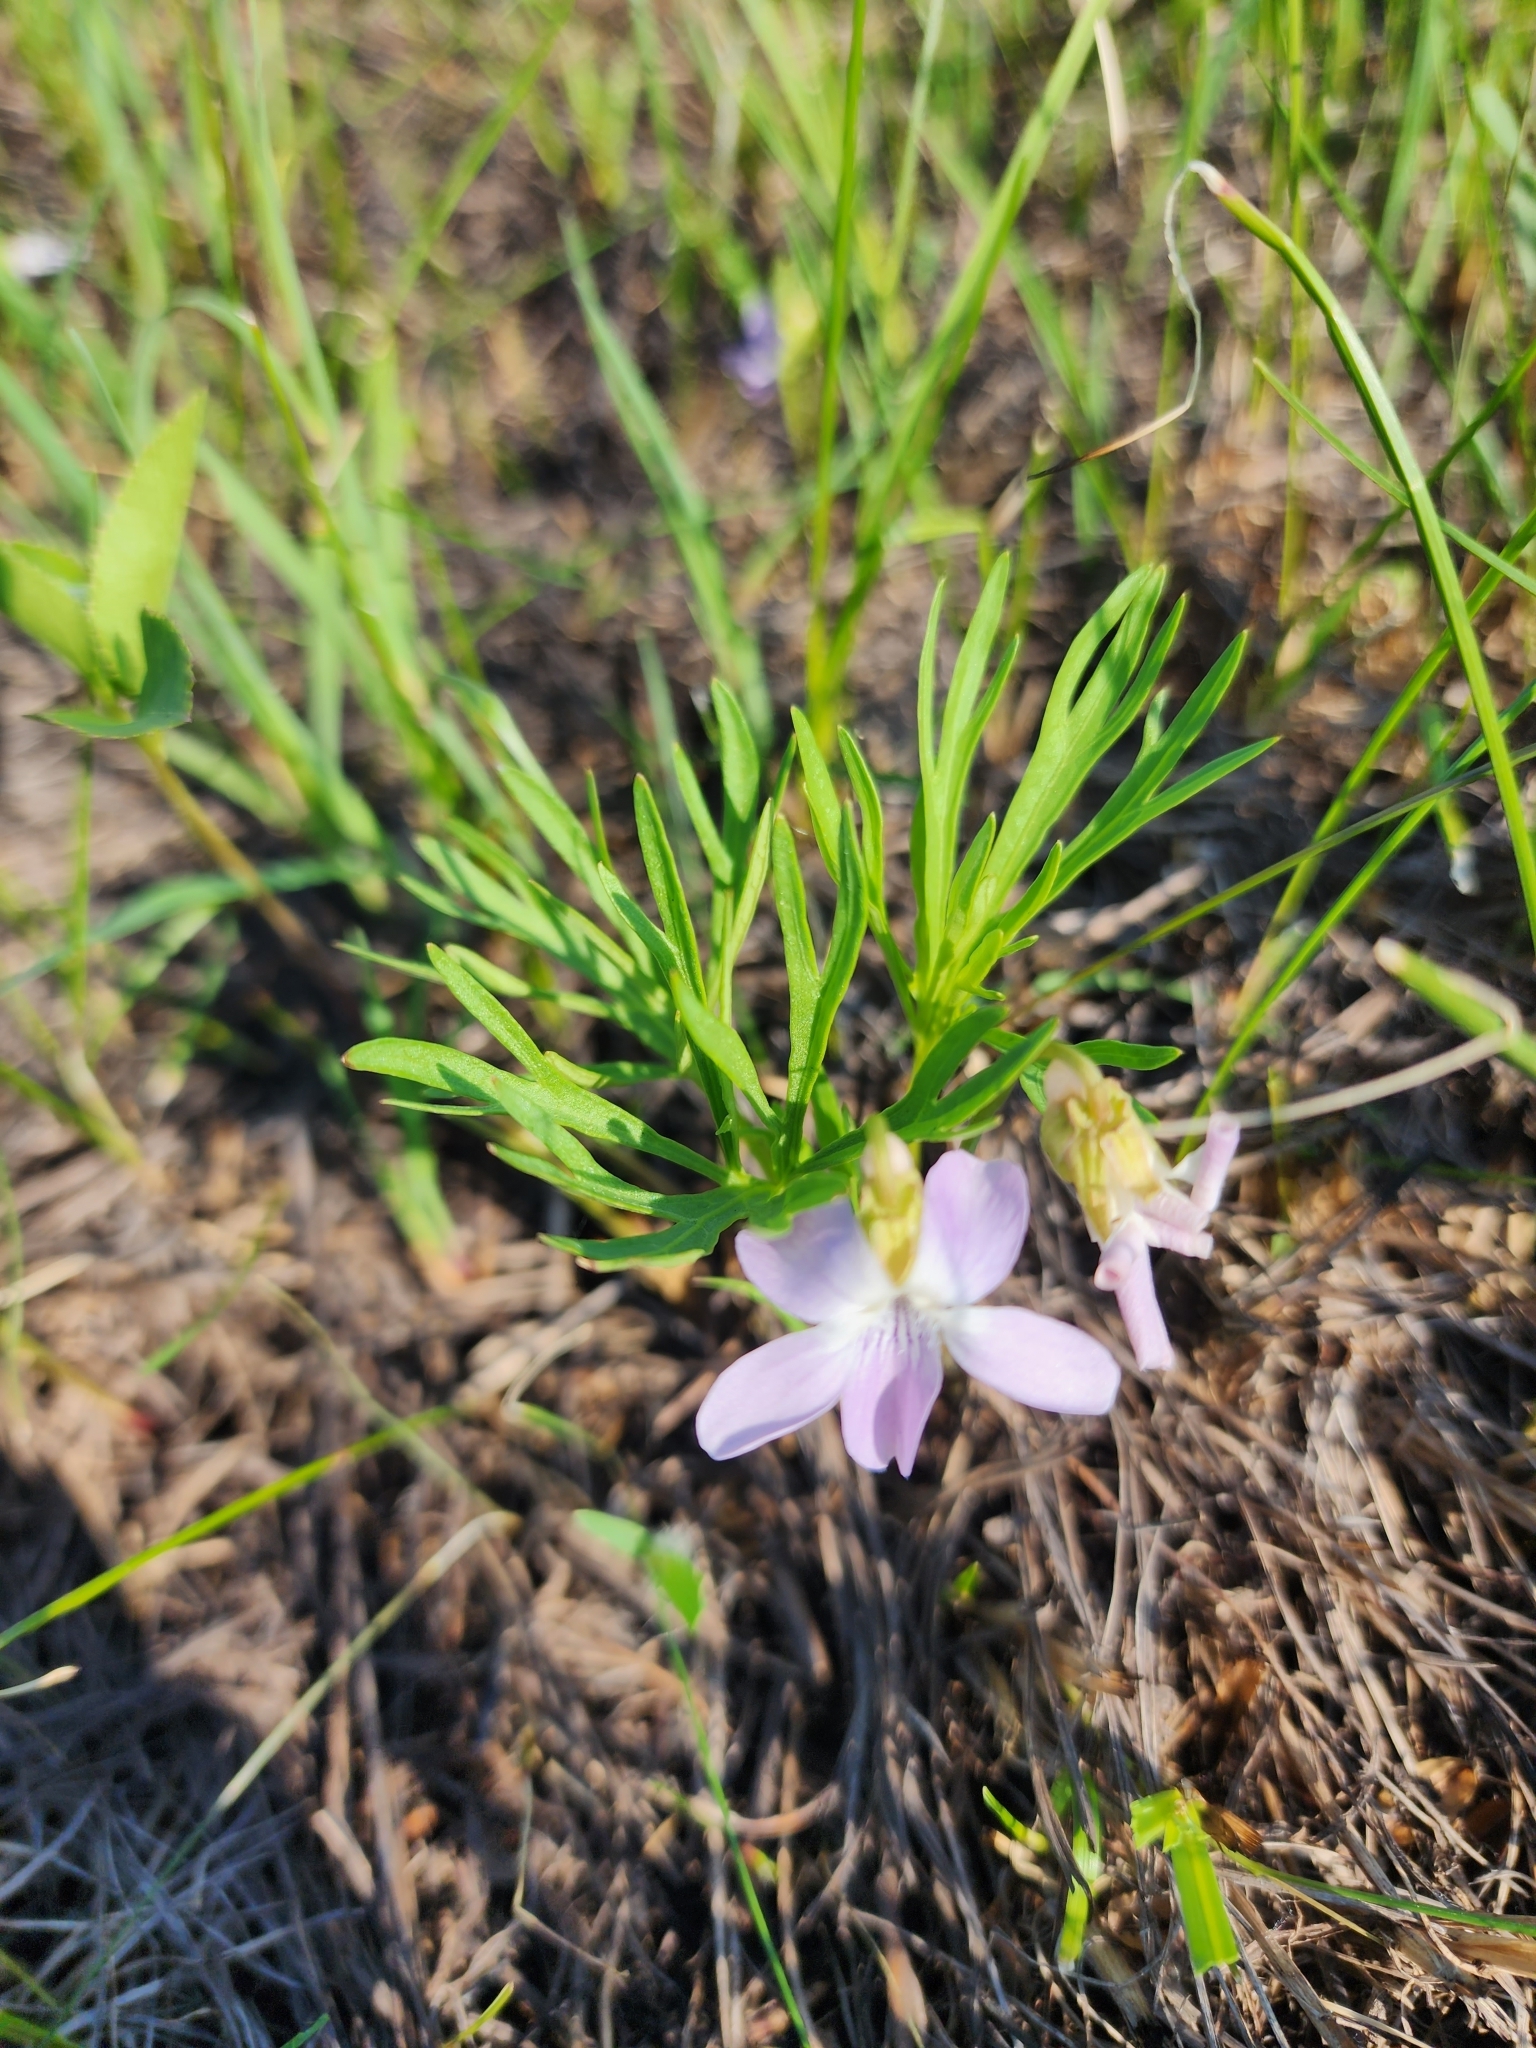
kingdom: Plantae
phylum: Tracheophyta
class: Magnoliopsida
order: Malpighiales
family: Violaceae
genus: Viola
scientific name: Viola pedatifida
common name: Prairie violet
